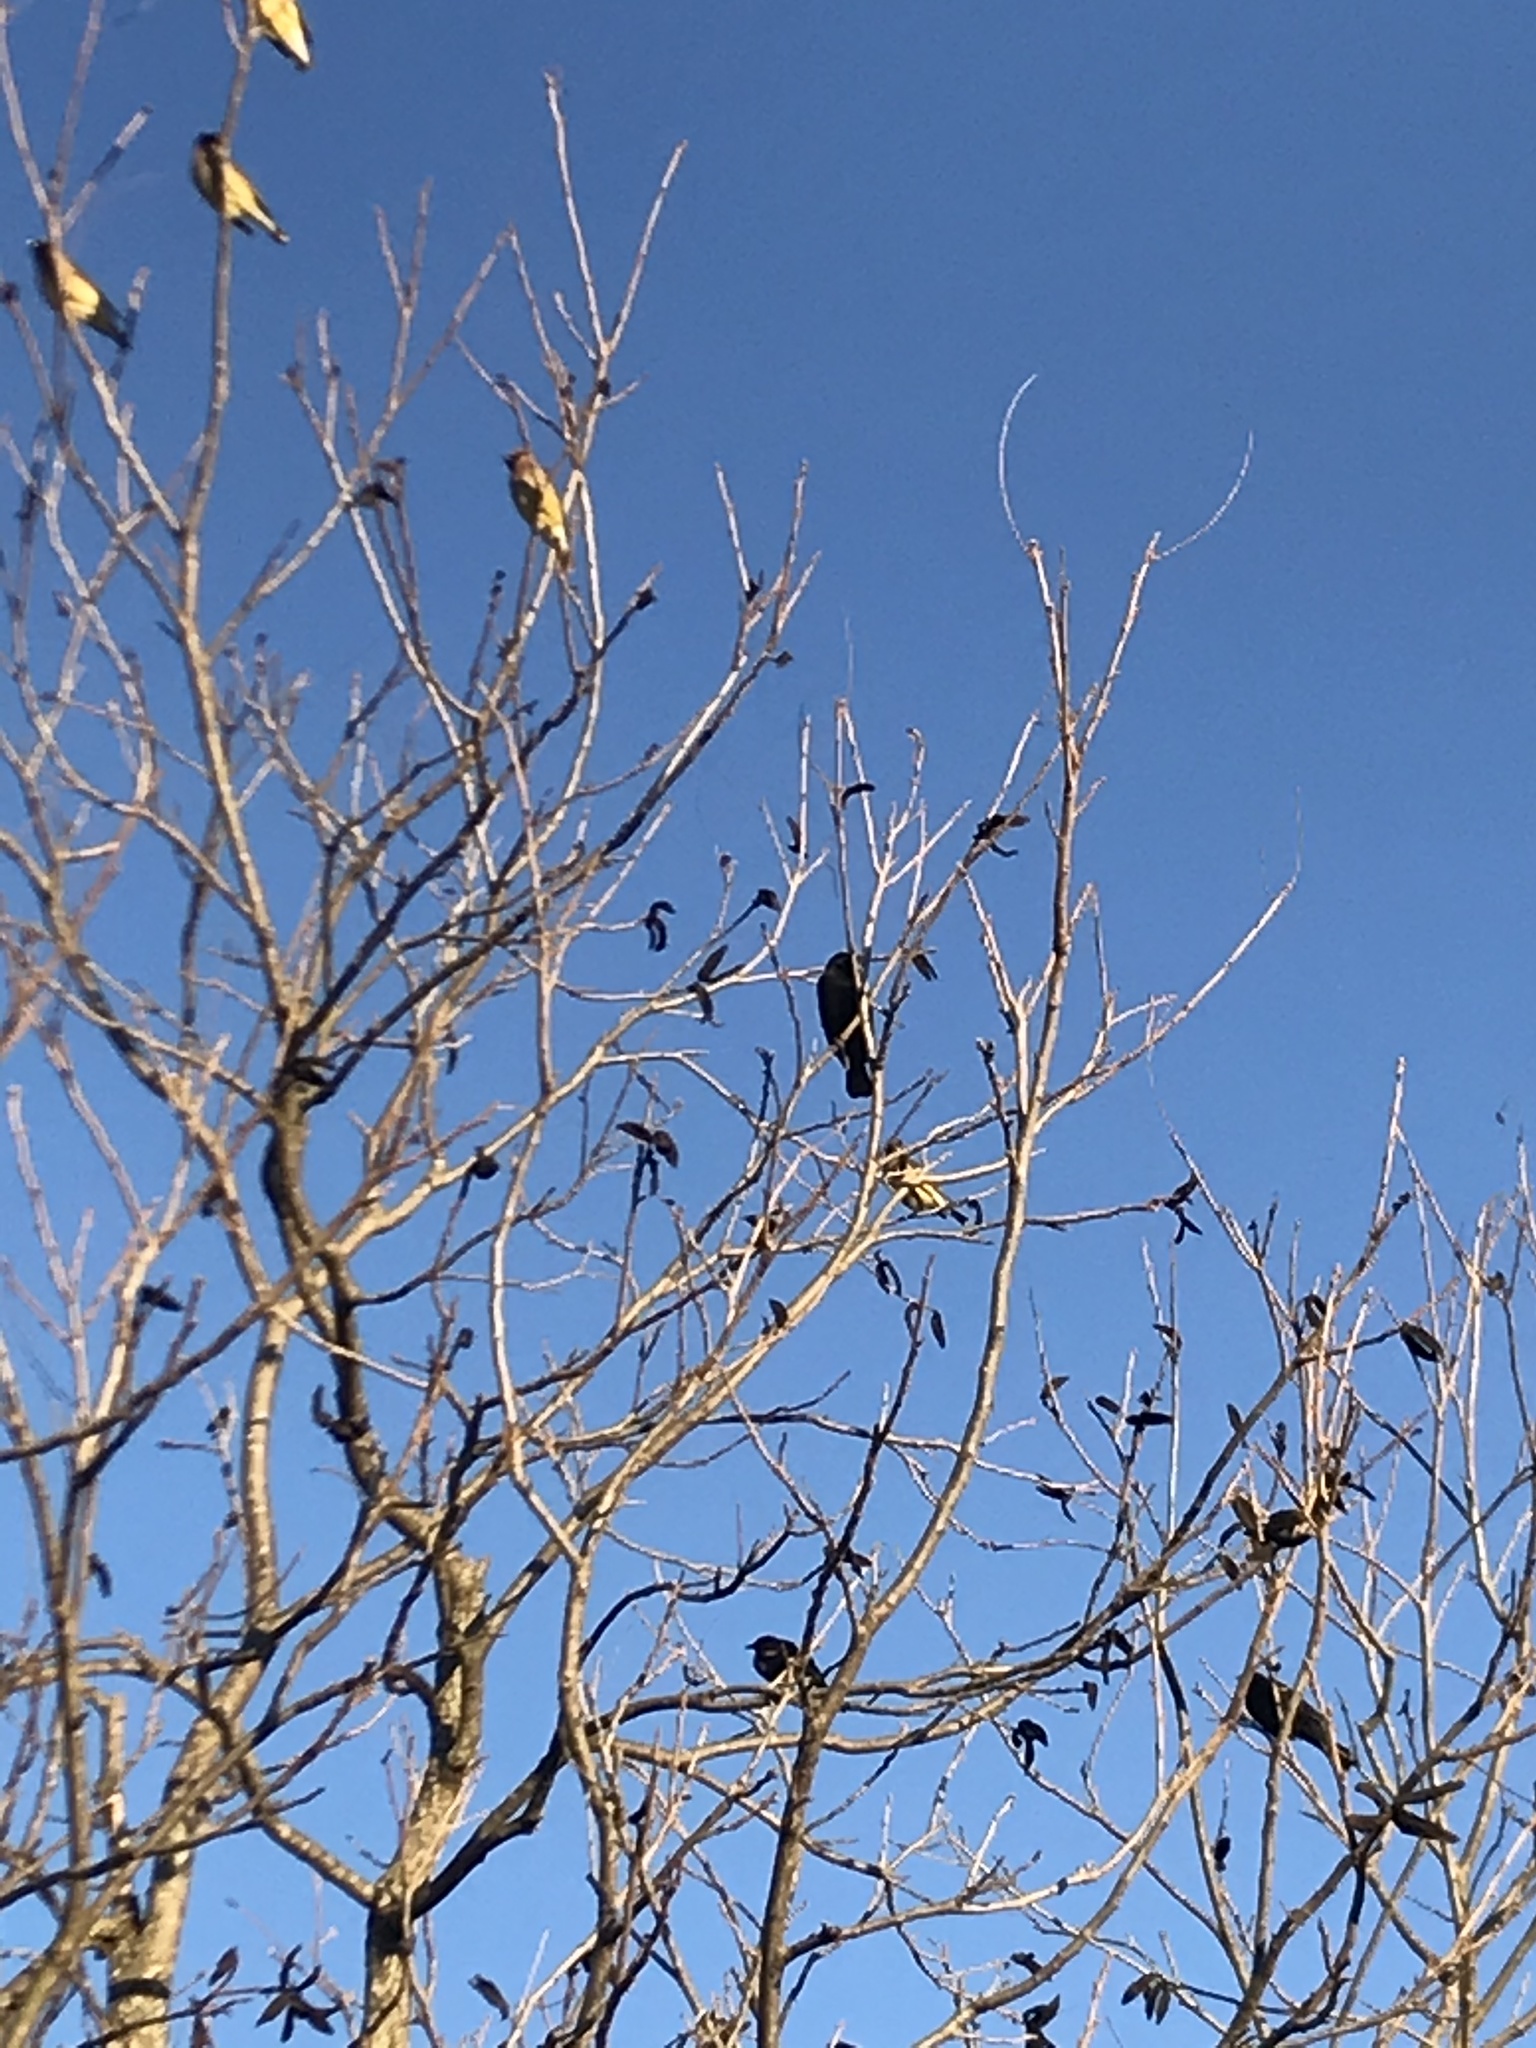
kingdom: Animalia
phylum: Chordata
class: Aves
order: Passeriformes
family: Bombycillidae
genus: Bombycilla
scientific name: Bombycilla cedrorum
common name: Cedar waxwing
